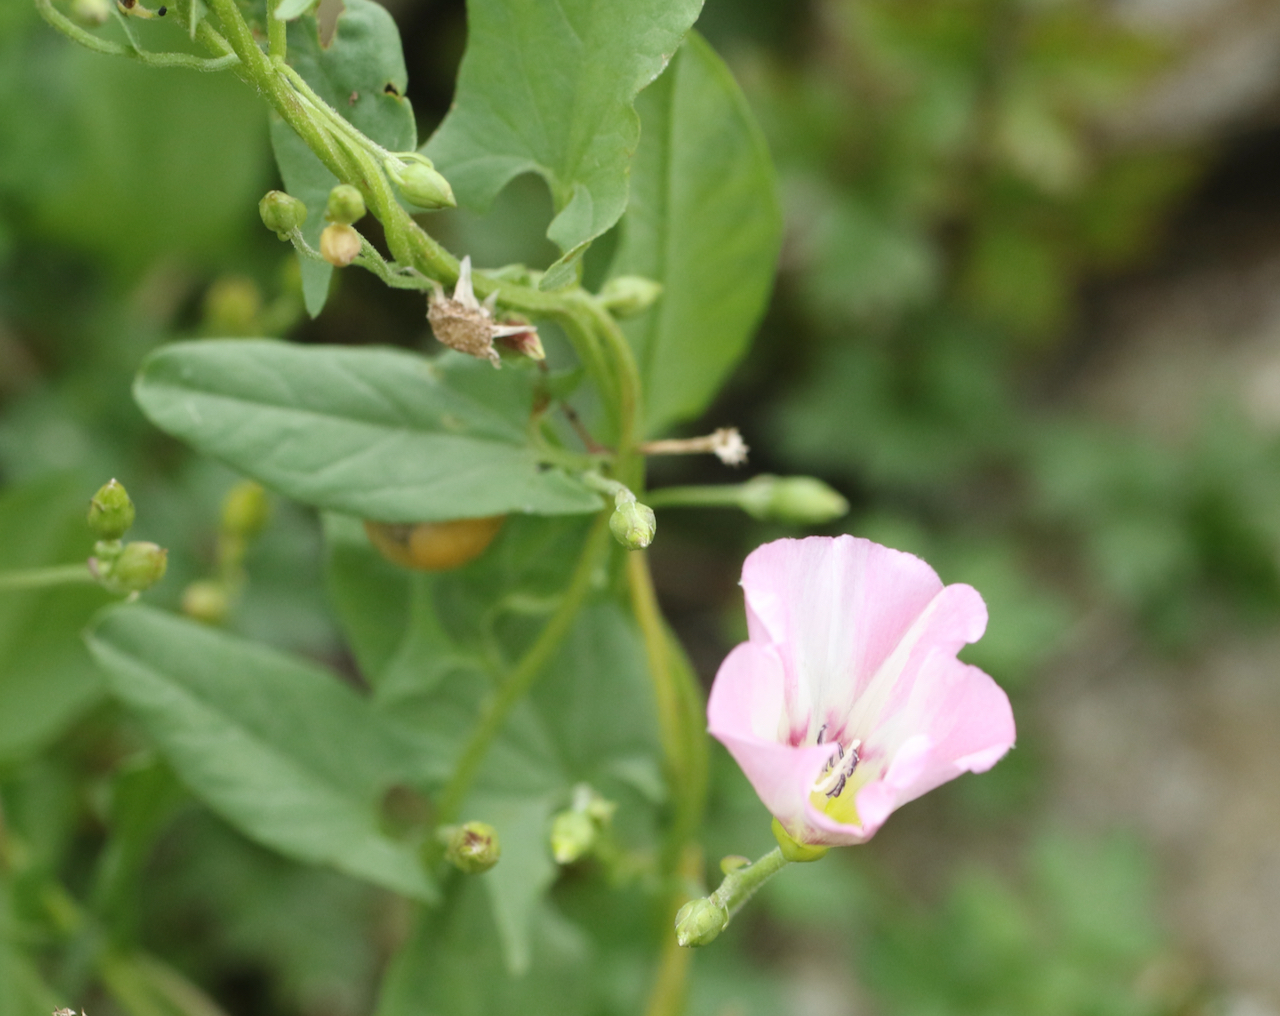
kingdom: Plantae
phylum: Tracheophyta
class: Magnoliopsida
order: Solanales
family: Convolvulaceae
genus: Convolvulus
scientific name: Convolvulus arvensis
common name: Field bindweed
